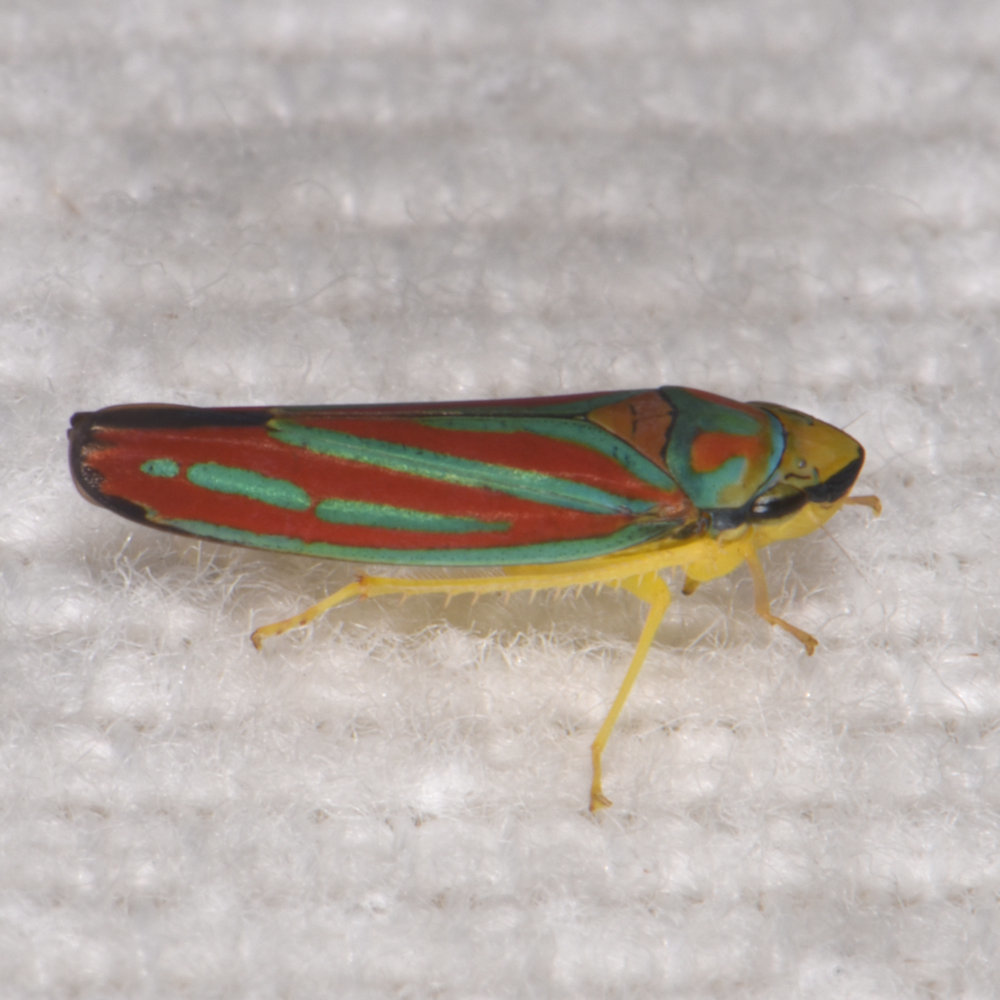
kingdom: Animalia
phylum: Arthropoda
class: Insecta
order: Hemiptera
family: Cicadellidae
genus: Graphocephala
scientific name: Graphocephala coccinea
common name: Candy-striped leafhopper
